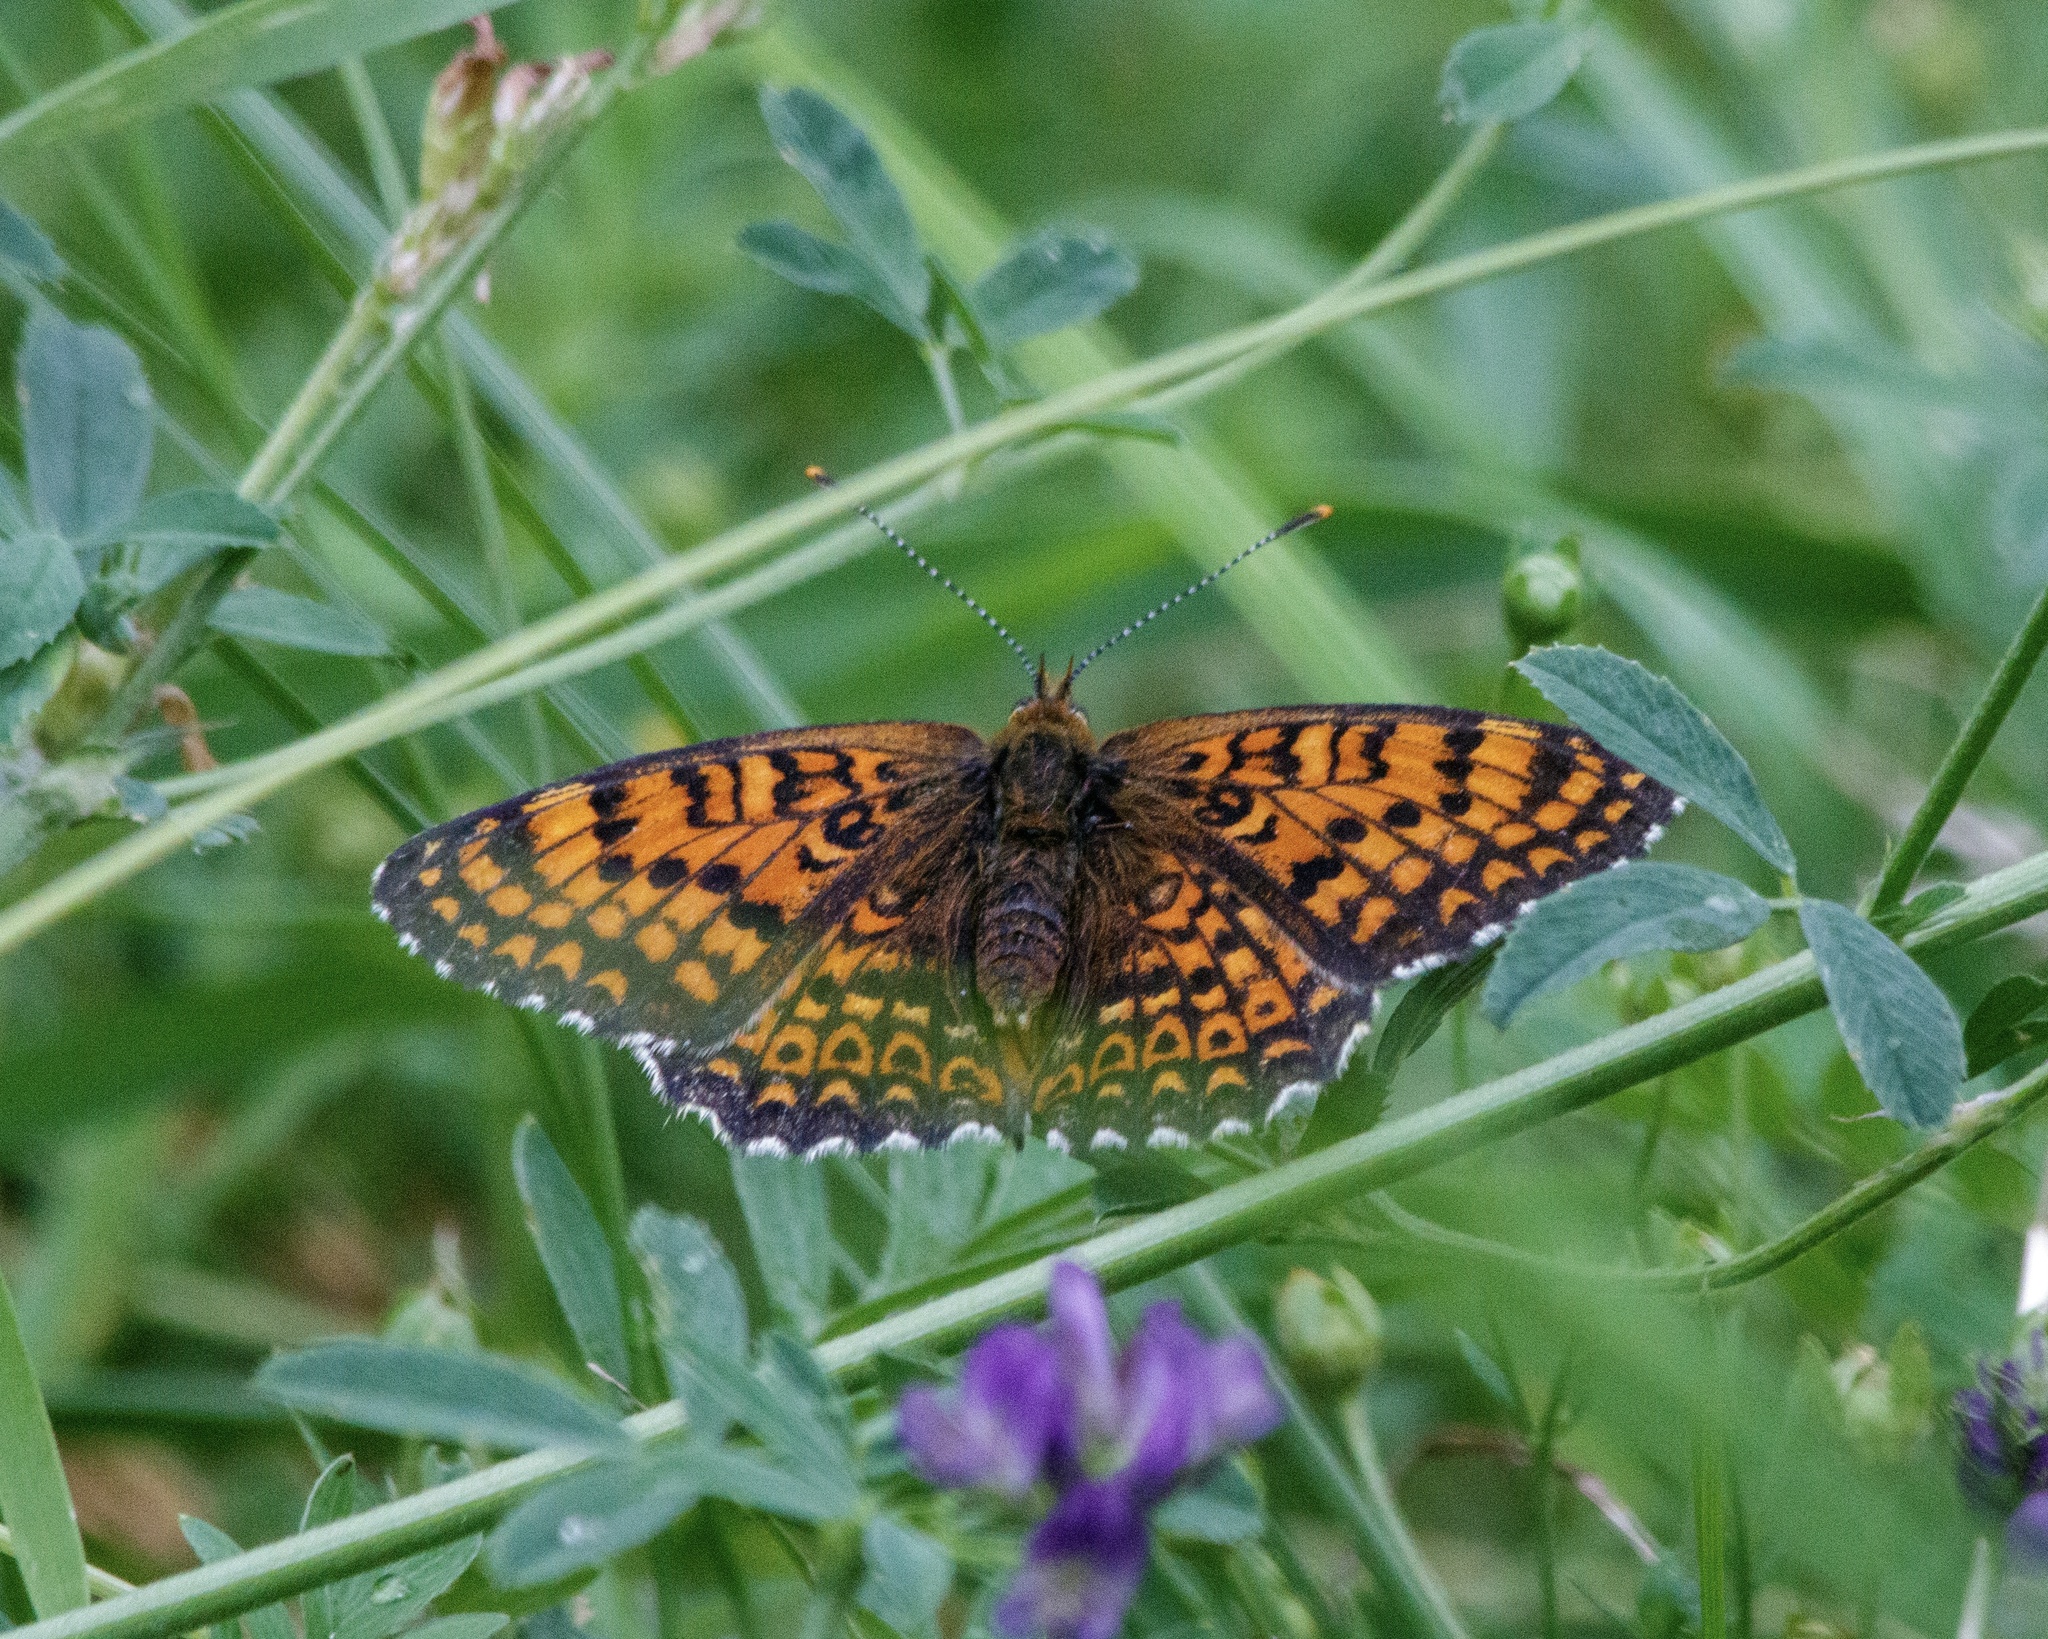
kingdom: Animalia
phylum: Arthropoda
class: Insecta
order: Lepidoptera
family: Nymphalidae
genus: Melitaea
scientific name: Melitaea arduinna
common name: Freyer's fritillary
